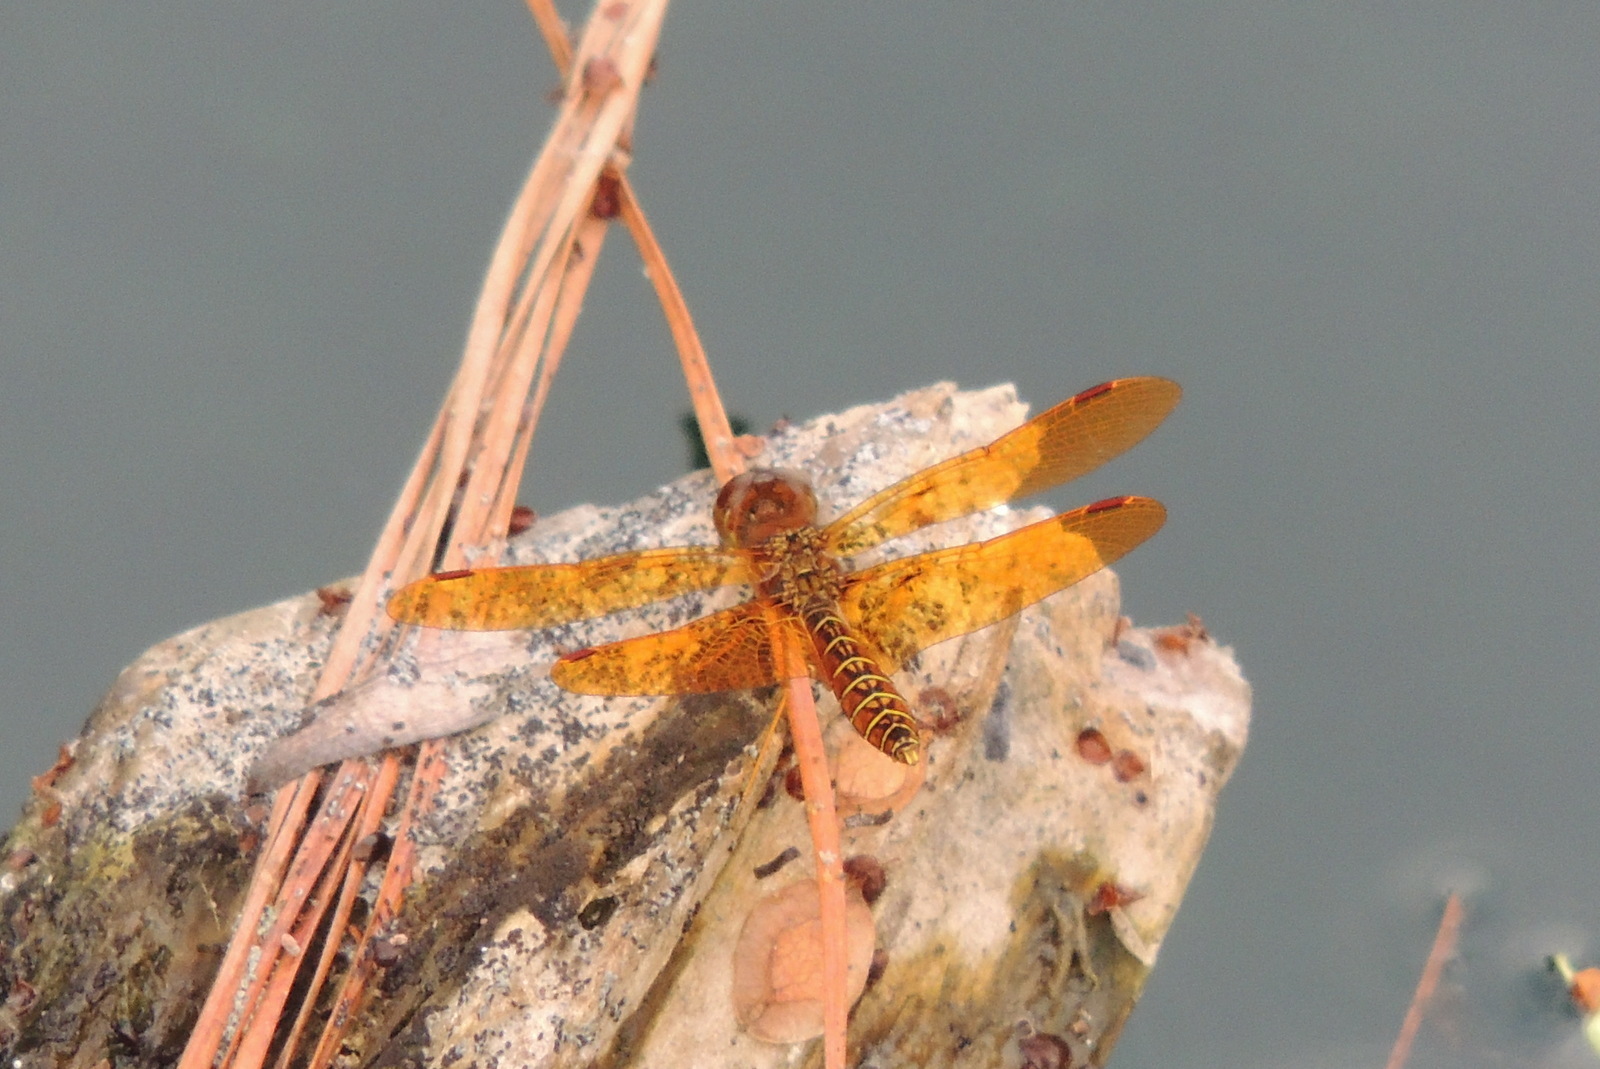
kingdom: Animalia
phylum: Arthropoda
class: Insecta
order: Odonata
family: Libellulidae
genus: Perithemis
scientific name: Perithemis tenera
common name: Eastern amberwing
